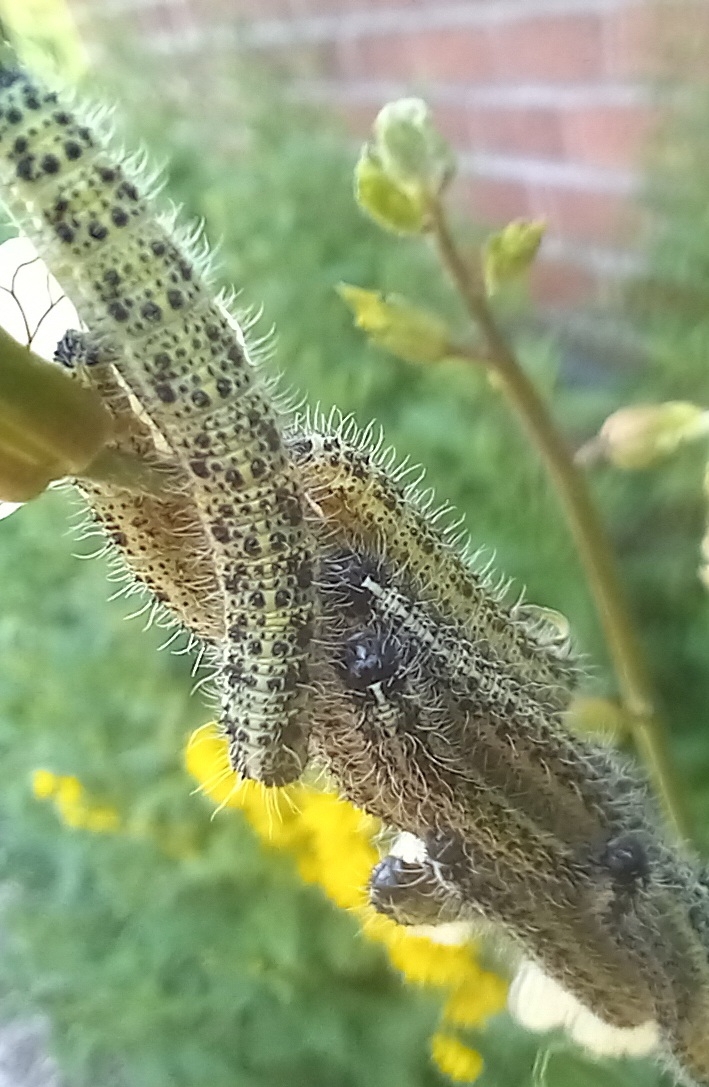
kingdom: Animalia
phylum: Arthropoda
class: Insecta
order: Lepidoptera
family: Pieridae
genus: Pieris
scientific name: Pieris brassicae
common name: Large white
